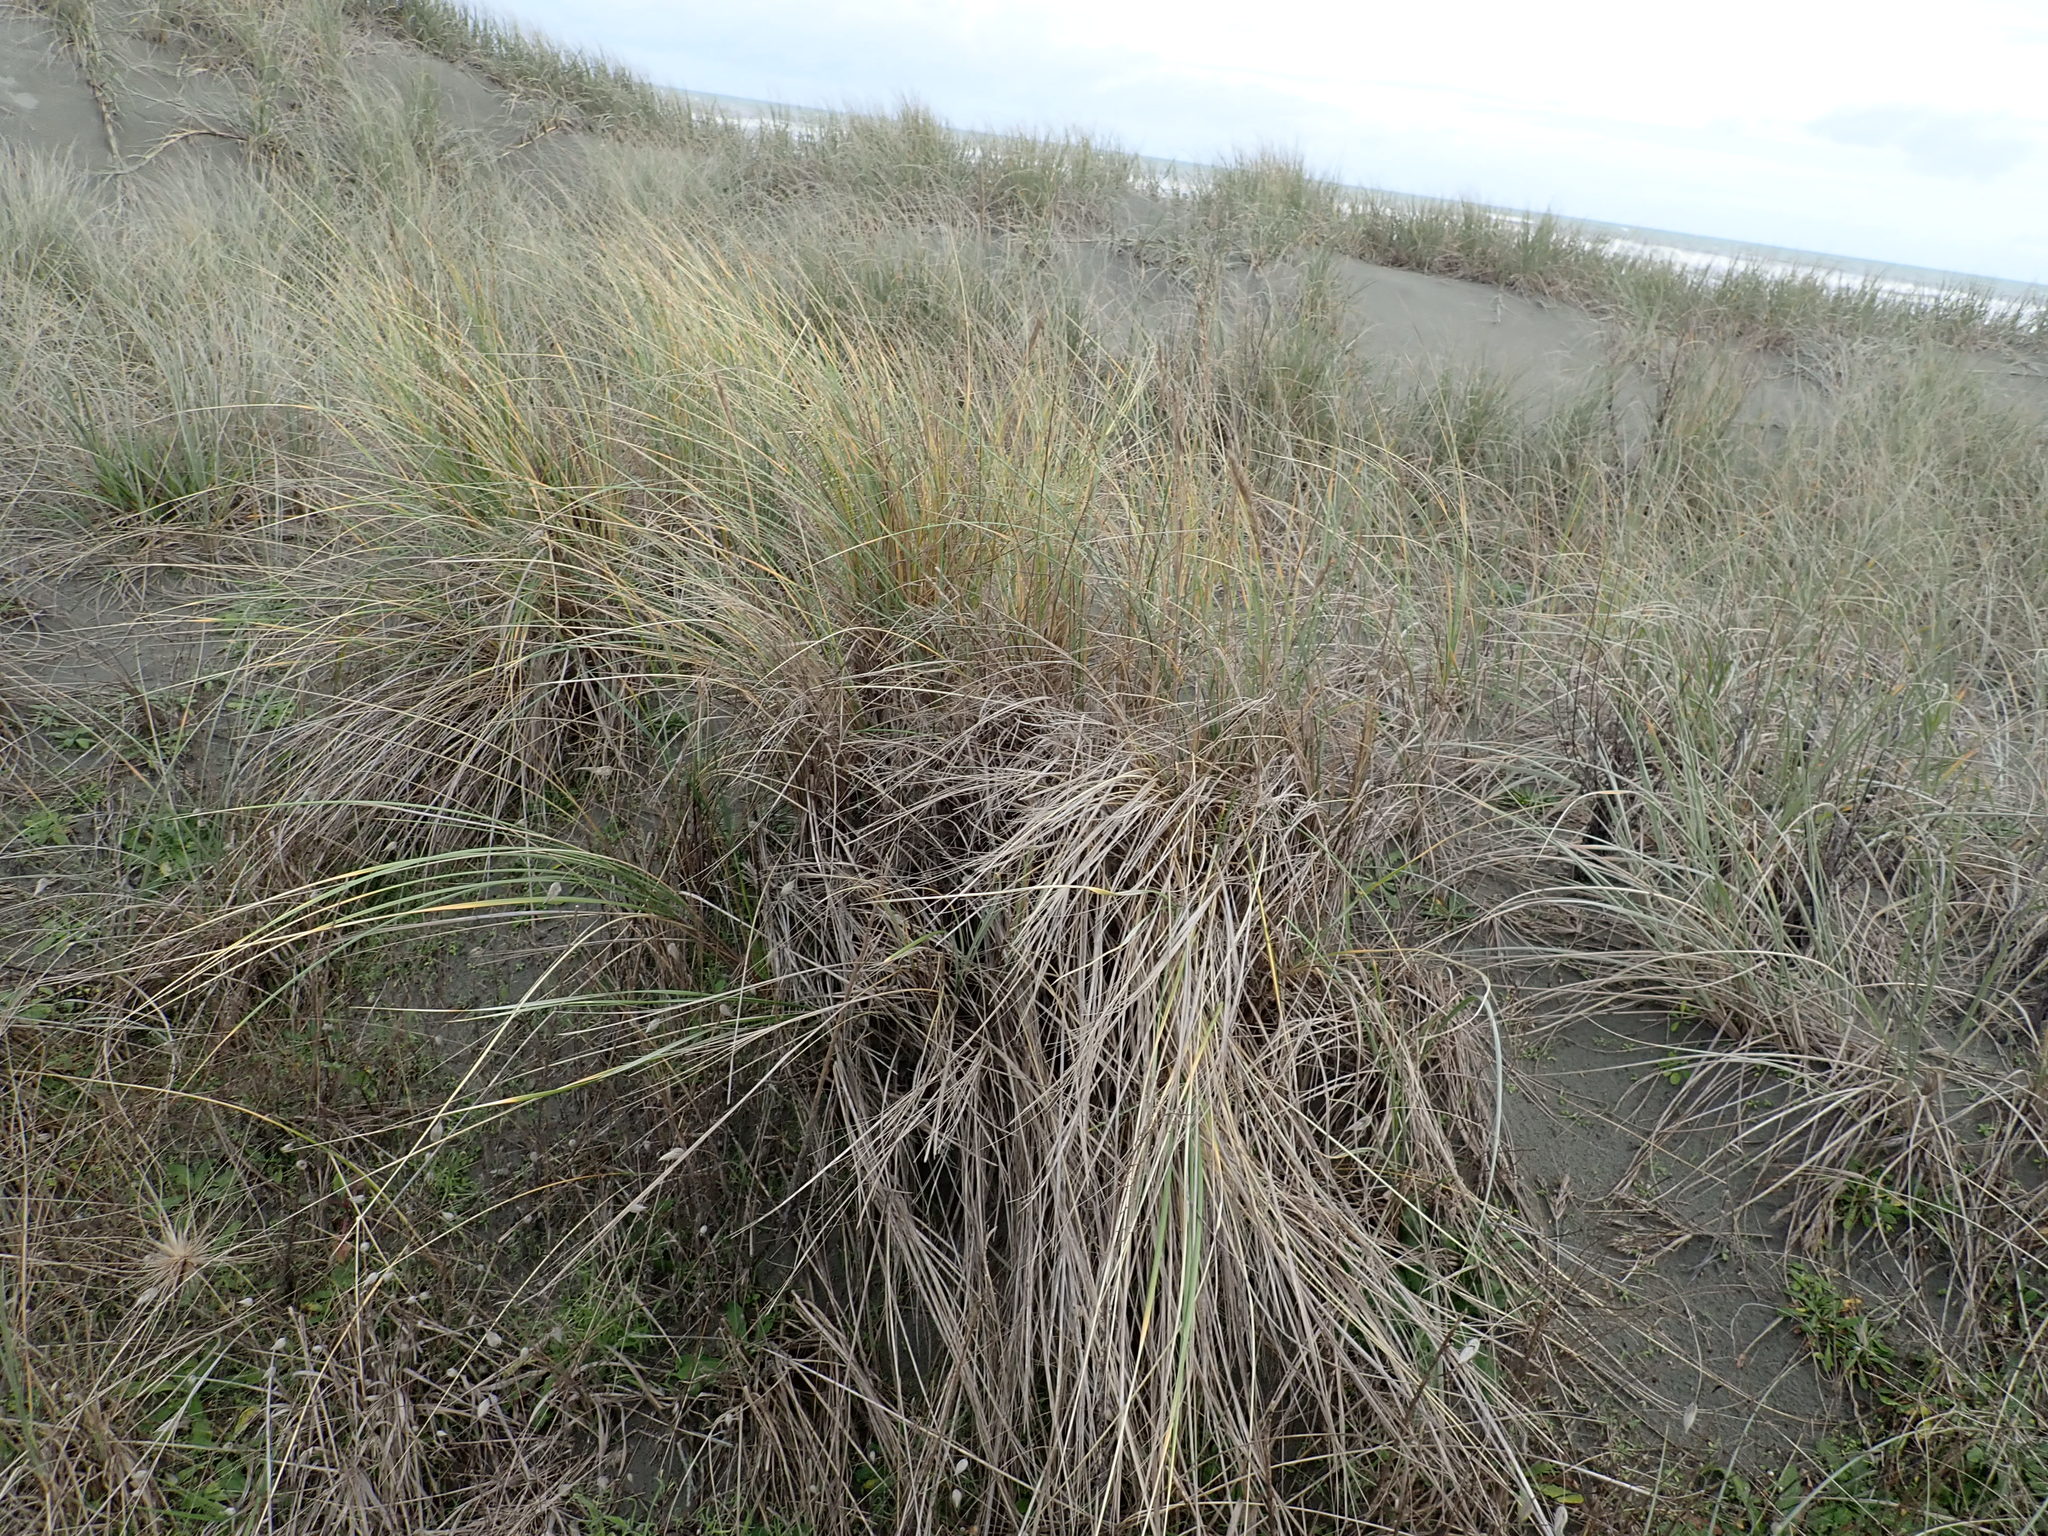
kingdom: Plantae
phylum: Tracheophyta
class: Liliopsida
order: Poales
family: Poaceae
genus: Calamagrostis
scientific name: Calamagrostis arenaria
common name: European beachgrass
